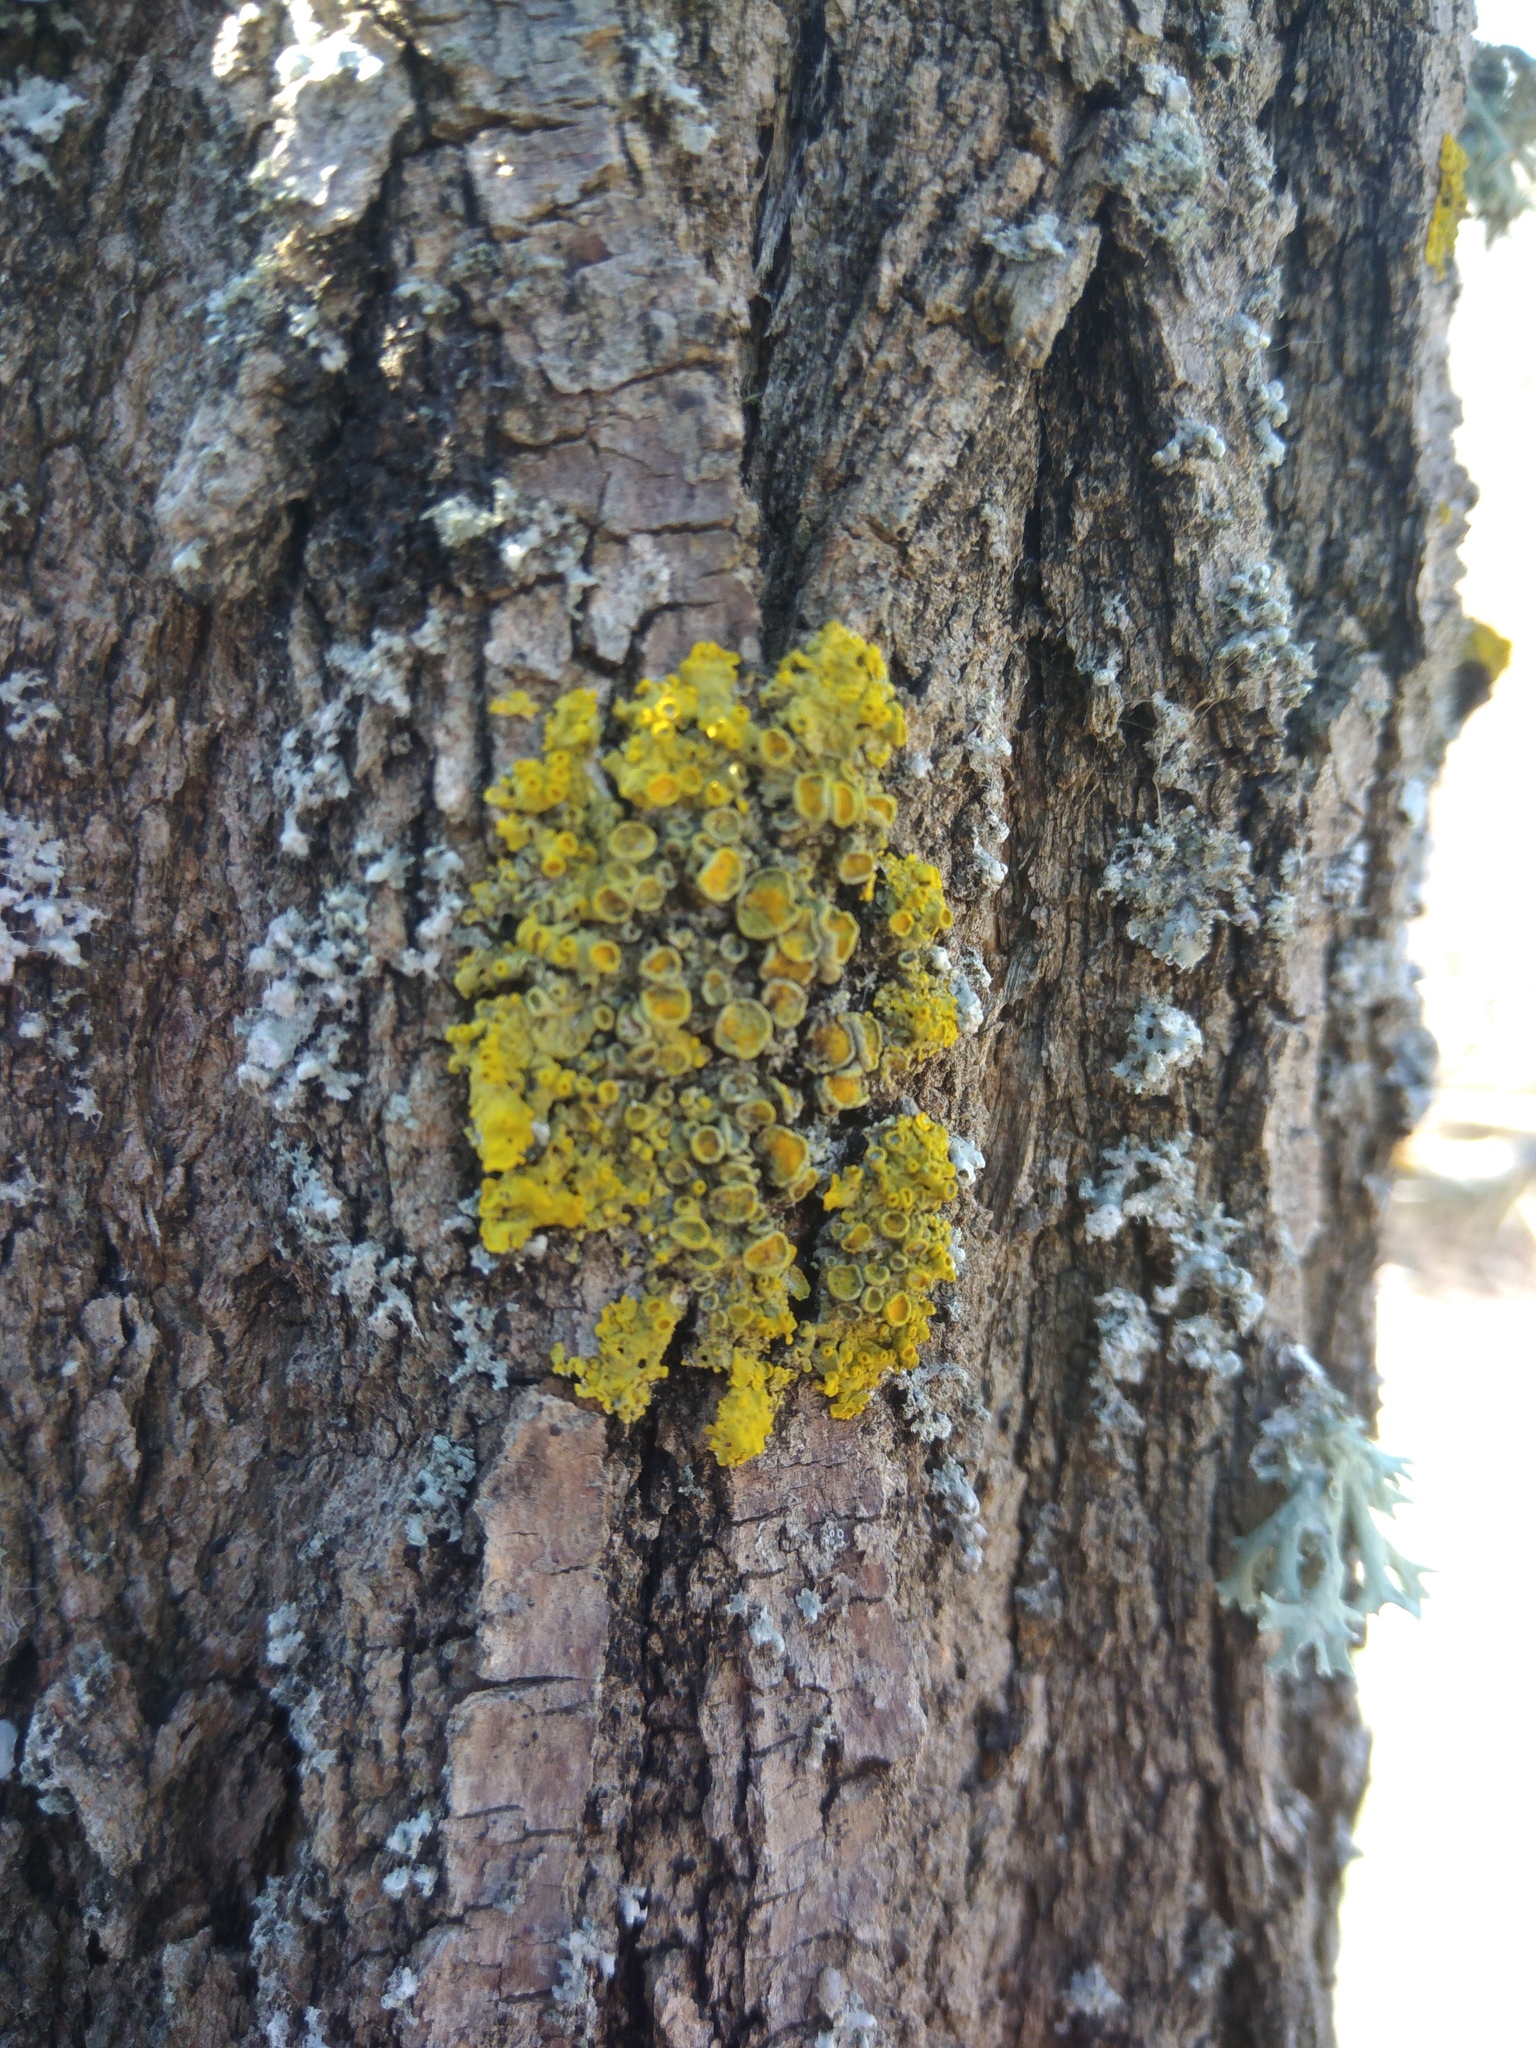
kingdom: Fungi
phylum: Ascomycota
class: Lecanoromycetes
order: Teloschistales
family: Teloschistaceae
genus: Xanthoria
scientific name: Xanthoria parietina
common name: Common orange lichen
